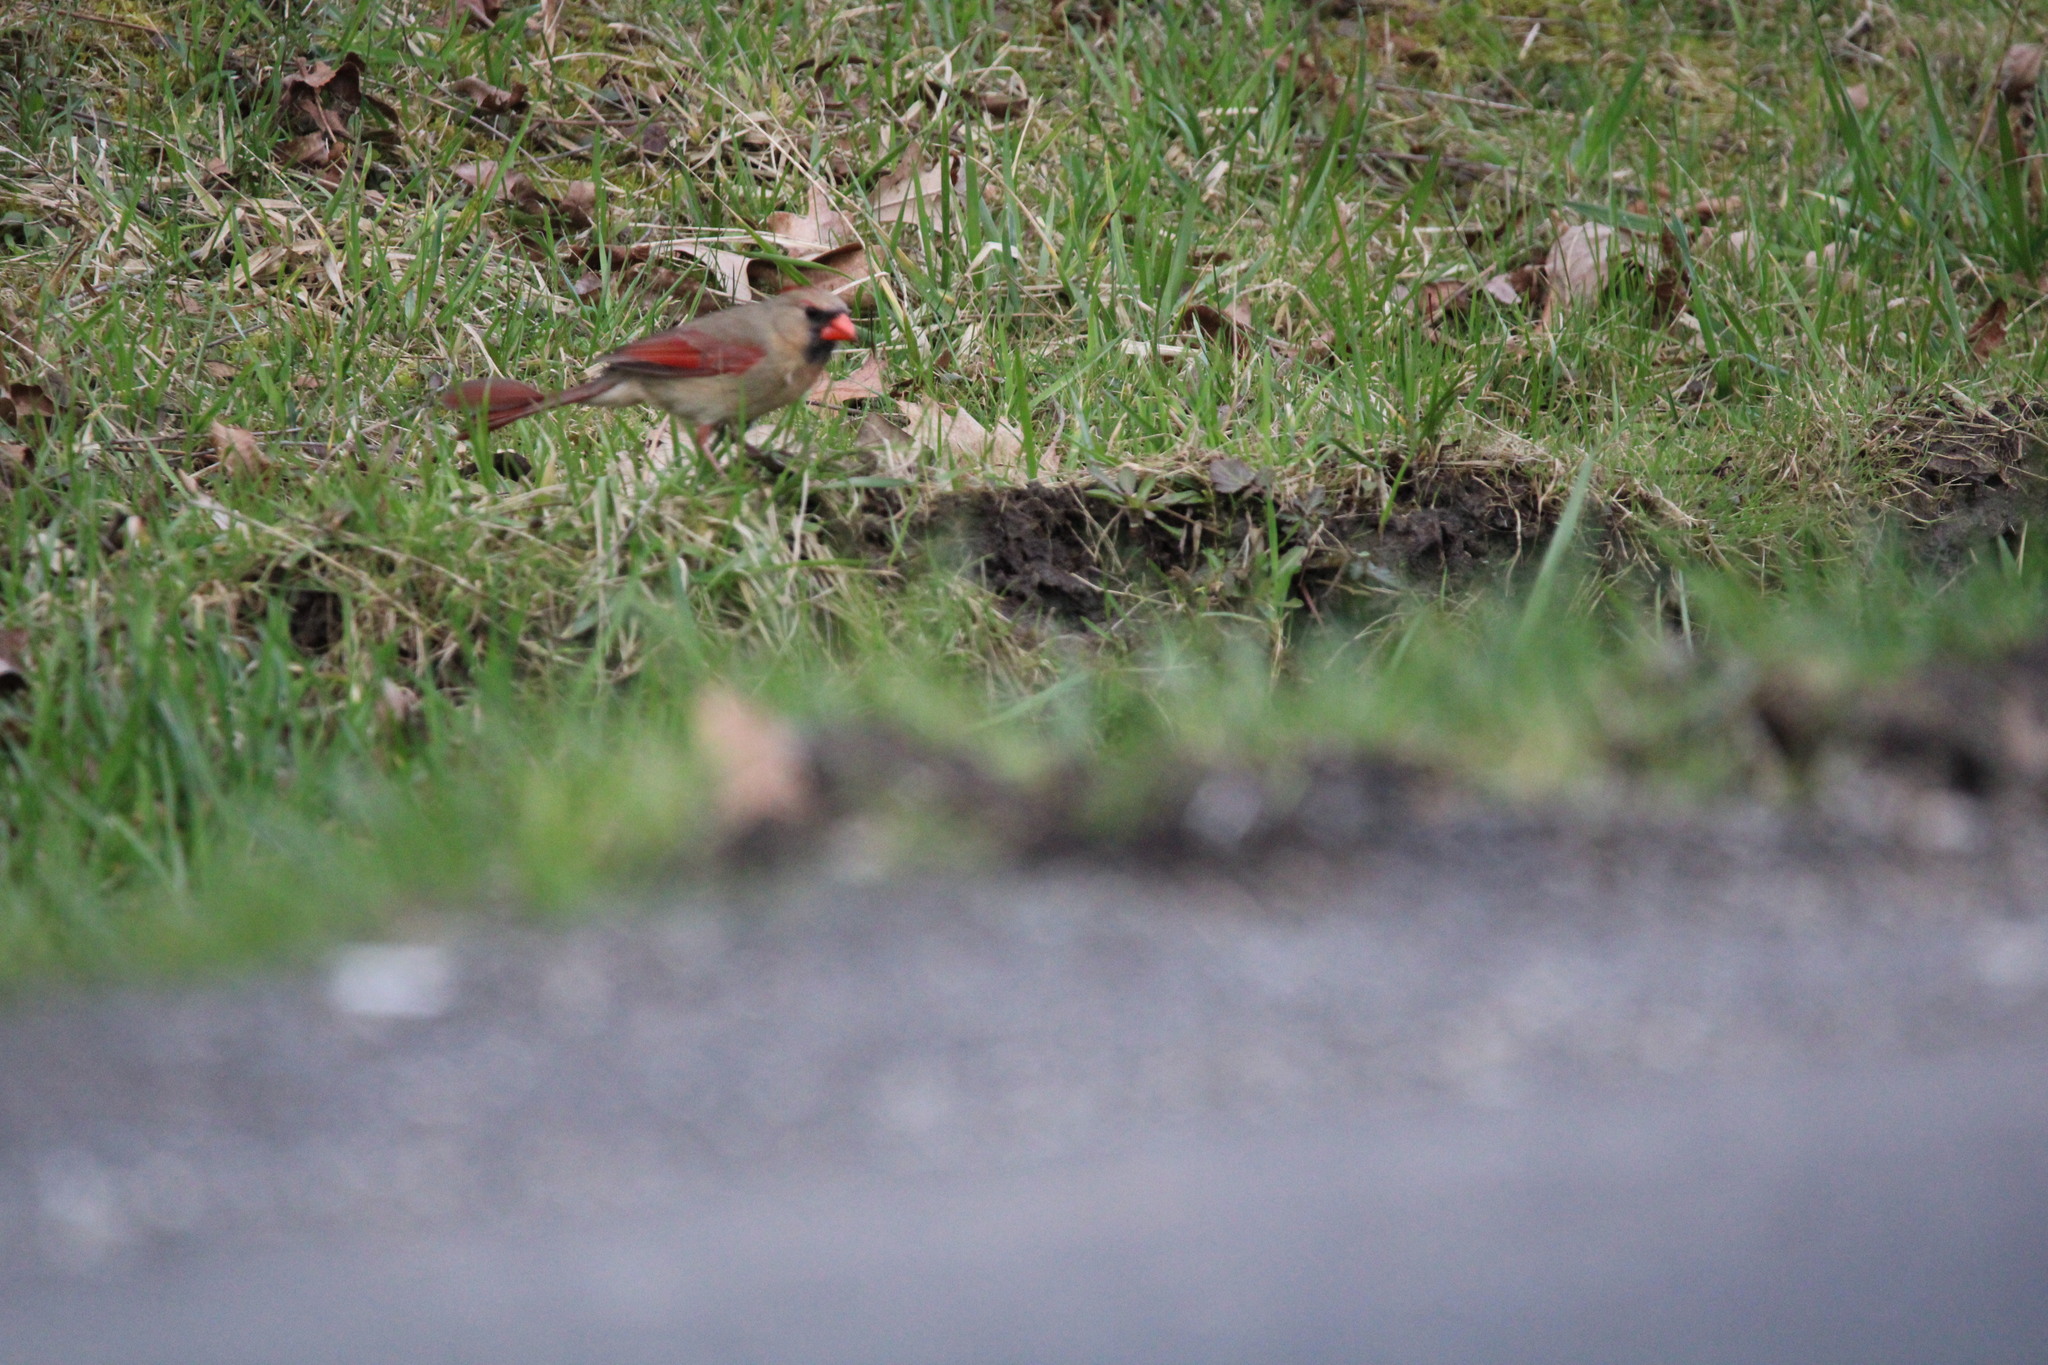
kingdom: Animalia
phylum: Chordata
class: Aves
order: Passeriformes
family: Cardinalidae
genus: Cardinalis
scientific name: Cardinalis cardinalis
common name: Northern cardinal
